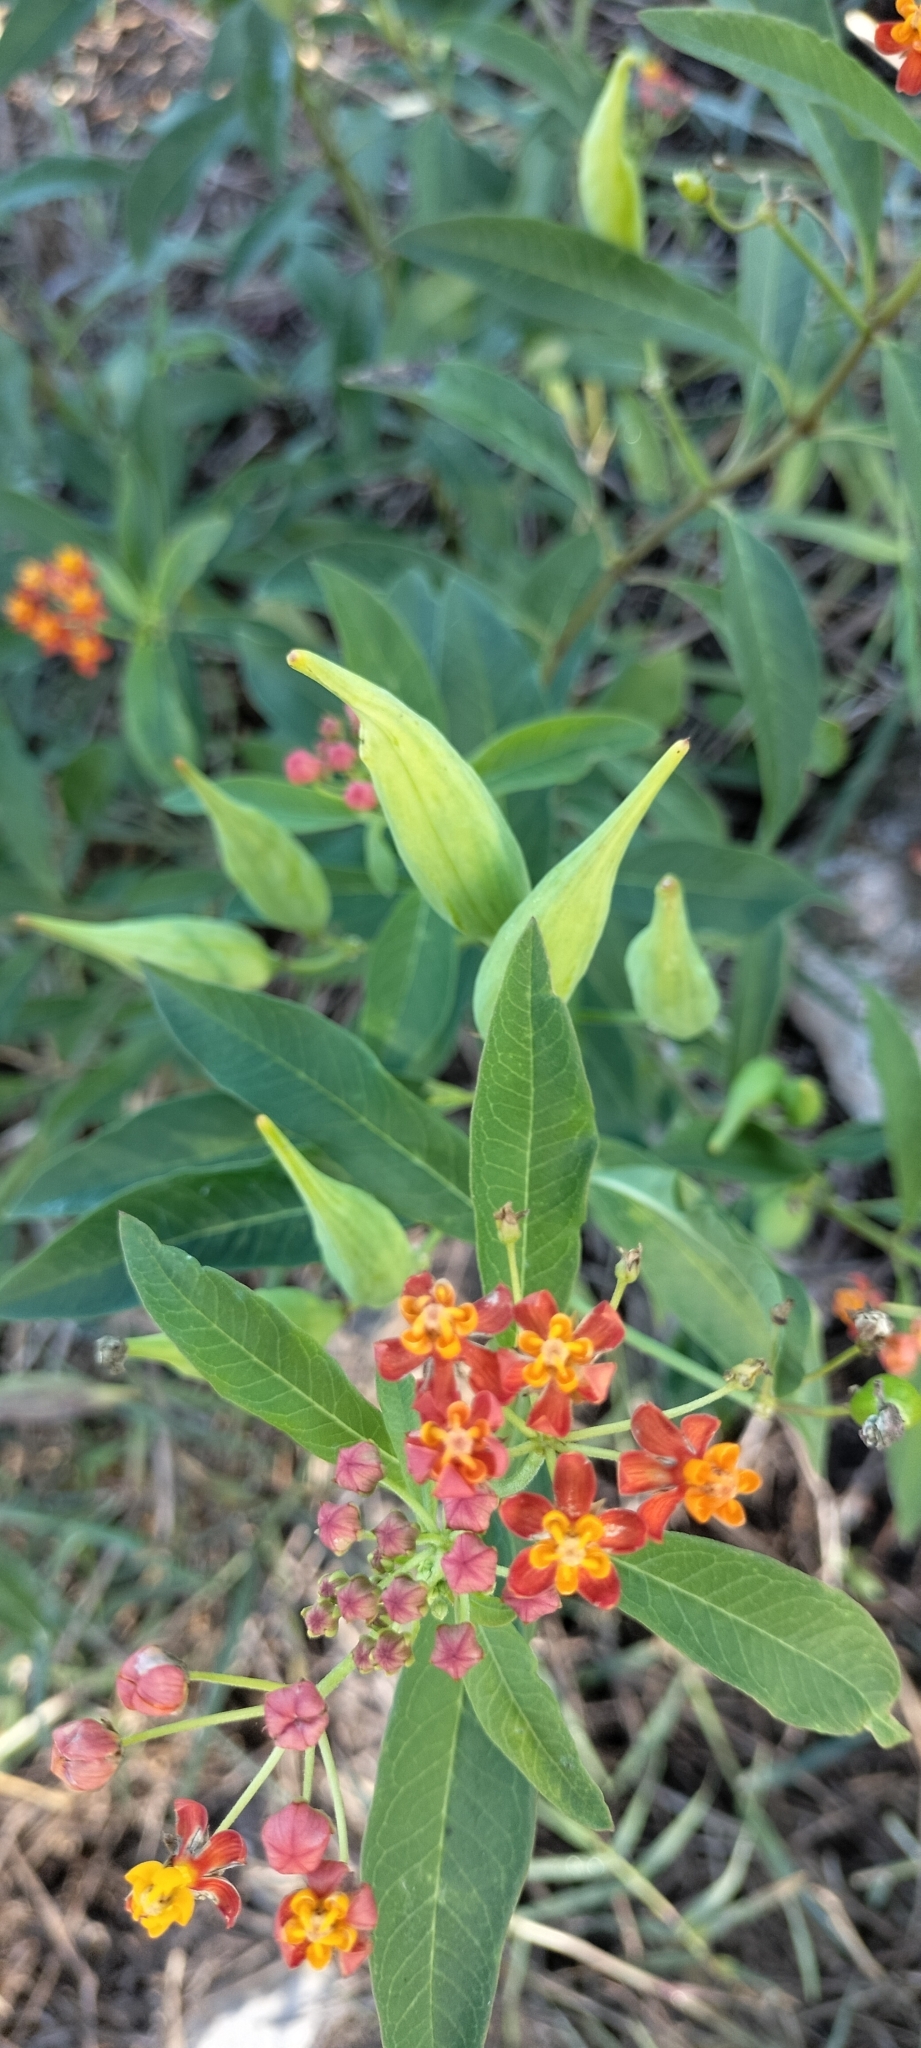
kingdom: Plantae
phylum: Tracheophyta
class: Magnoliopsida
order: Gentianales
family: Apocynaceae
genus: Asclepias
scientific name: Asclepias curassavica
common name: Bloodflower
